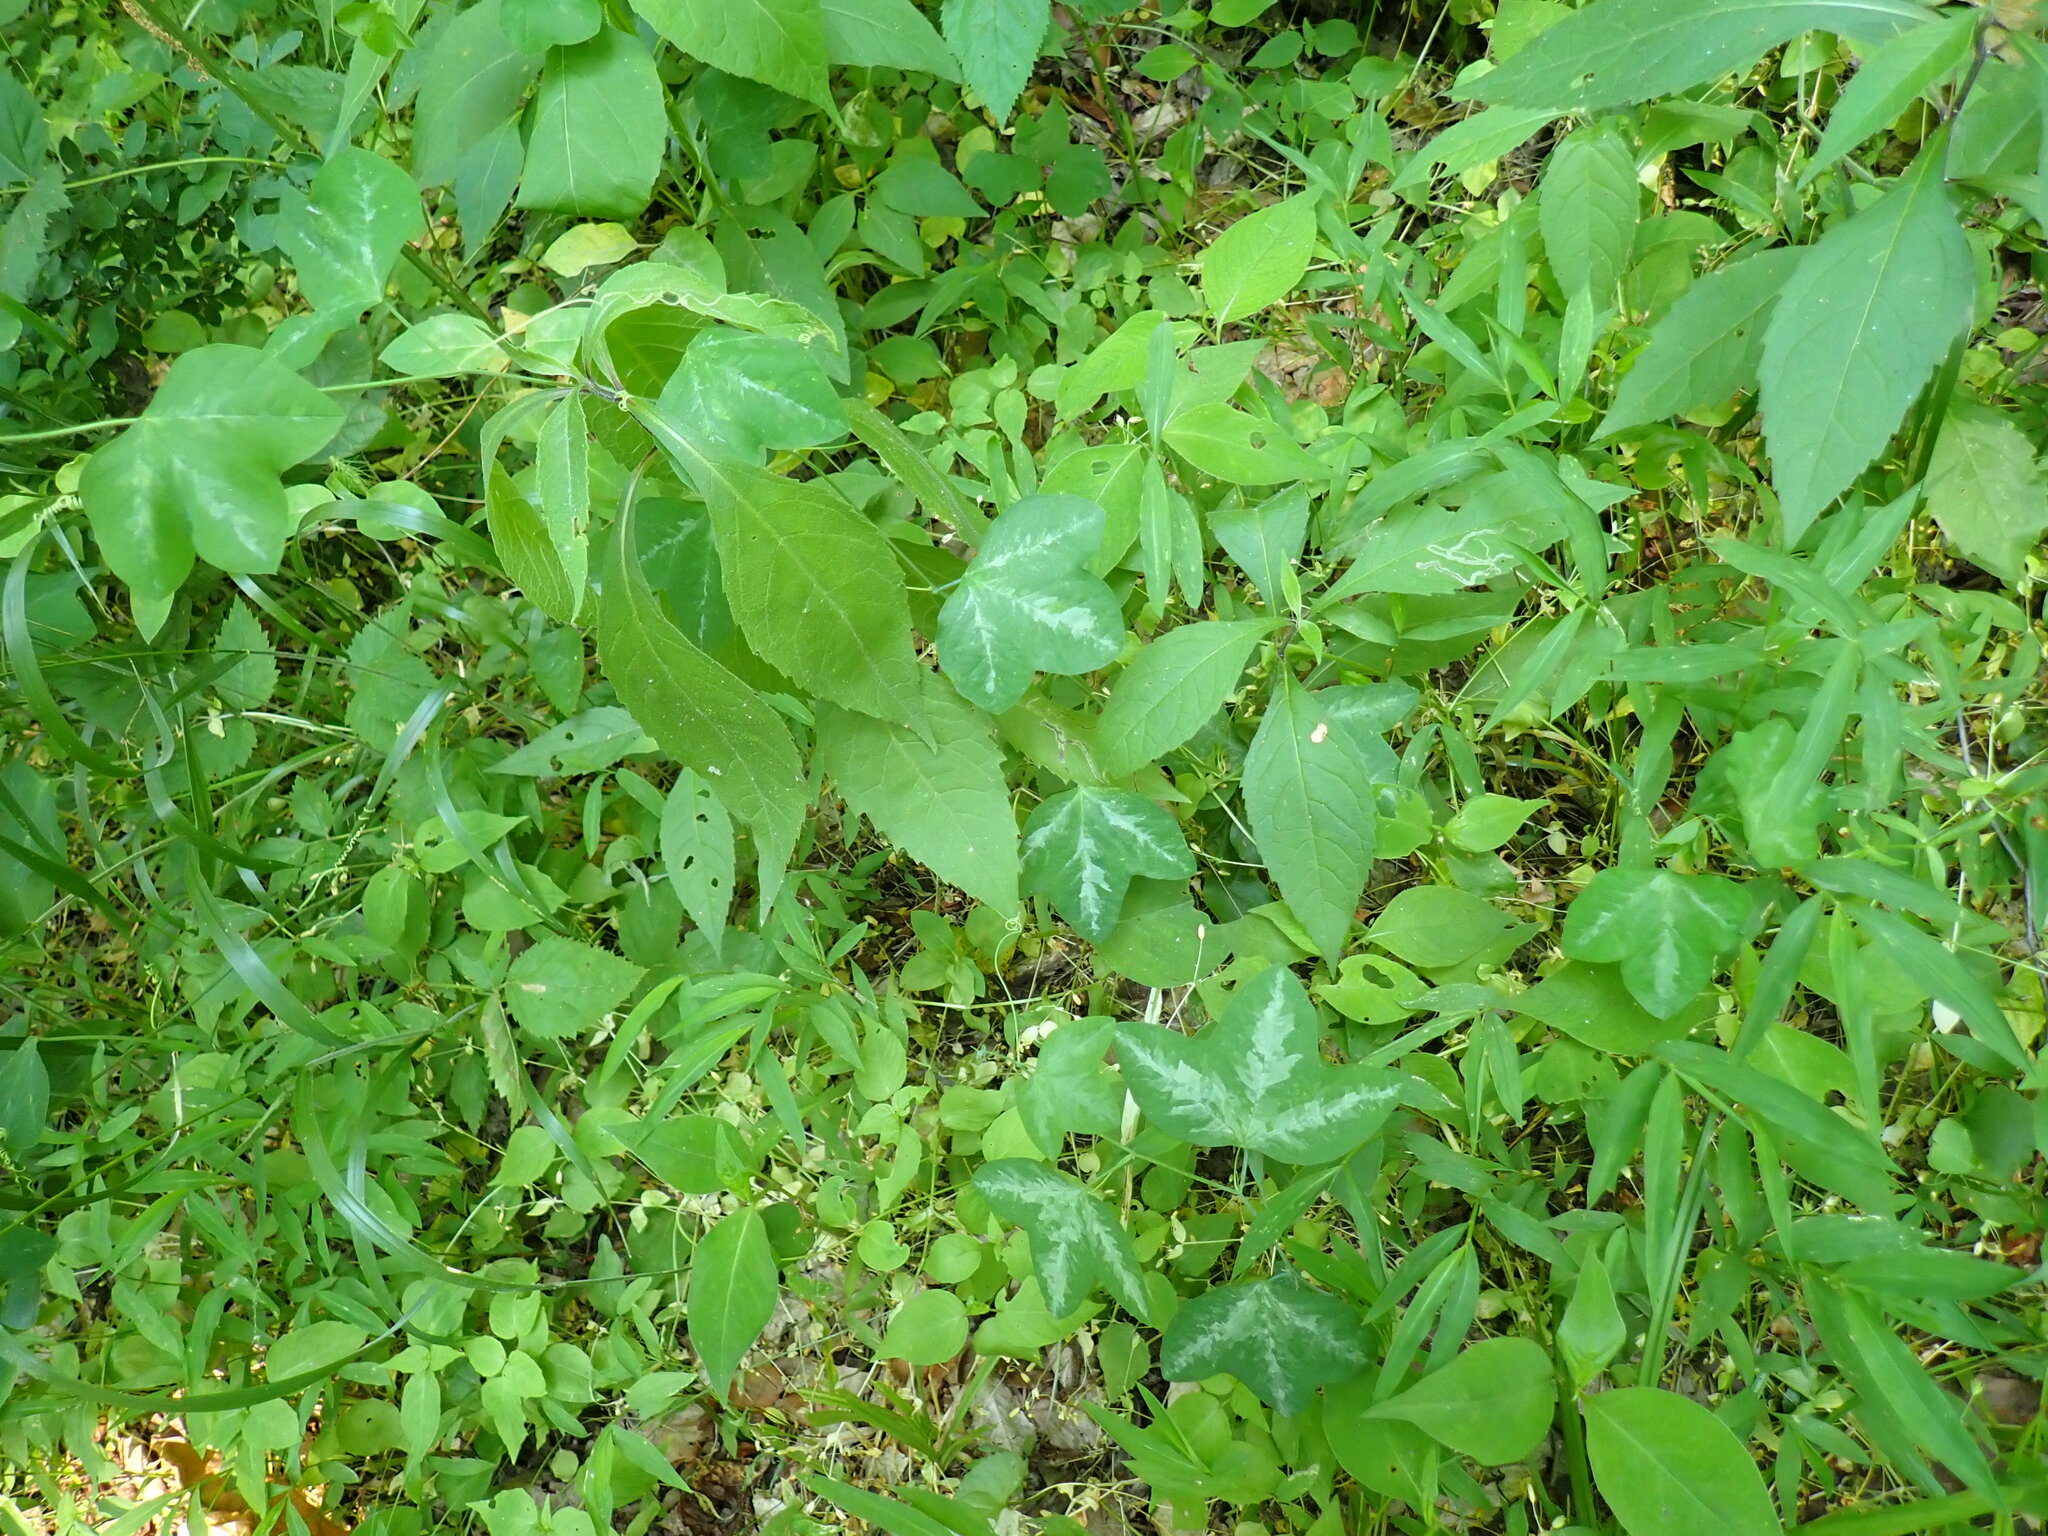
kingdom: Plantae
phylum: Tracheophyta
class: Magnoliopsida
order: Malpighiales
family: Passifloraceae
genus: Passiflora
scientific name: Passiflora lutea
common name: Yellow passionflower
